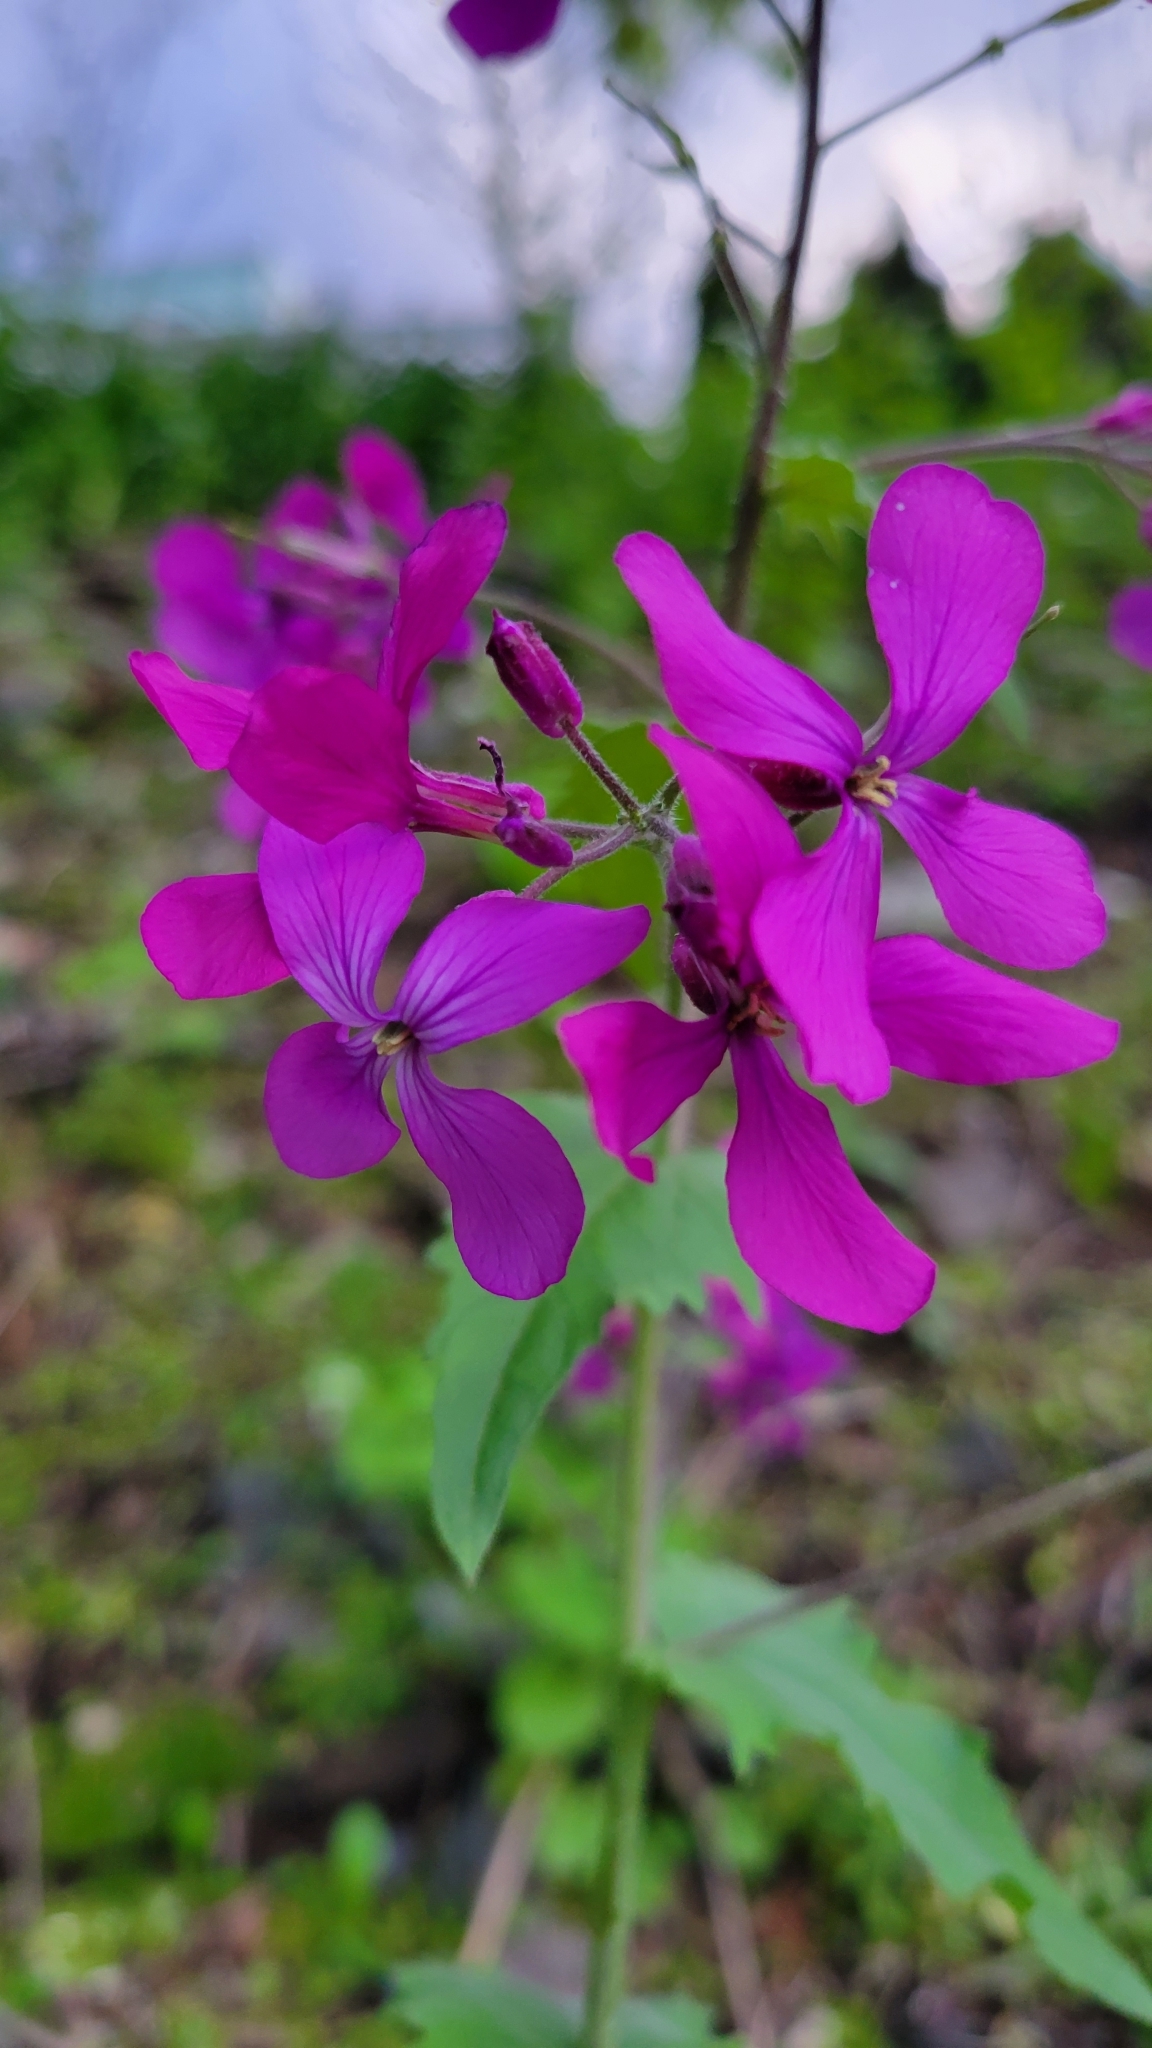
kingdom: Plantae
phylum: Tracheophyta
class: Magnoliopsida
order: Brassicales
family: Brassicaceae
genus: Lunaria
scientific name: Lunaria annua
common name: Honesty
